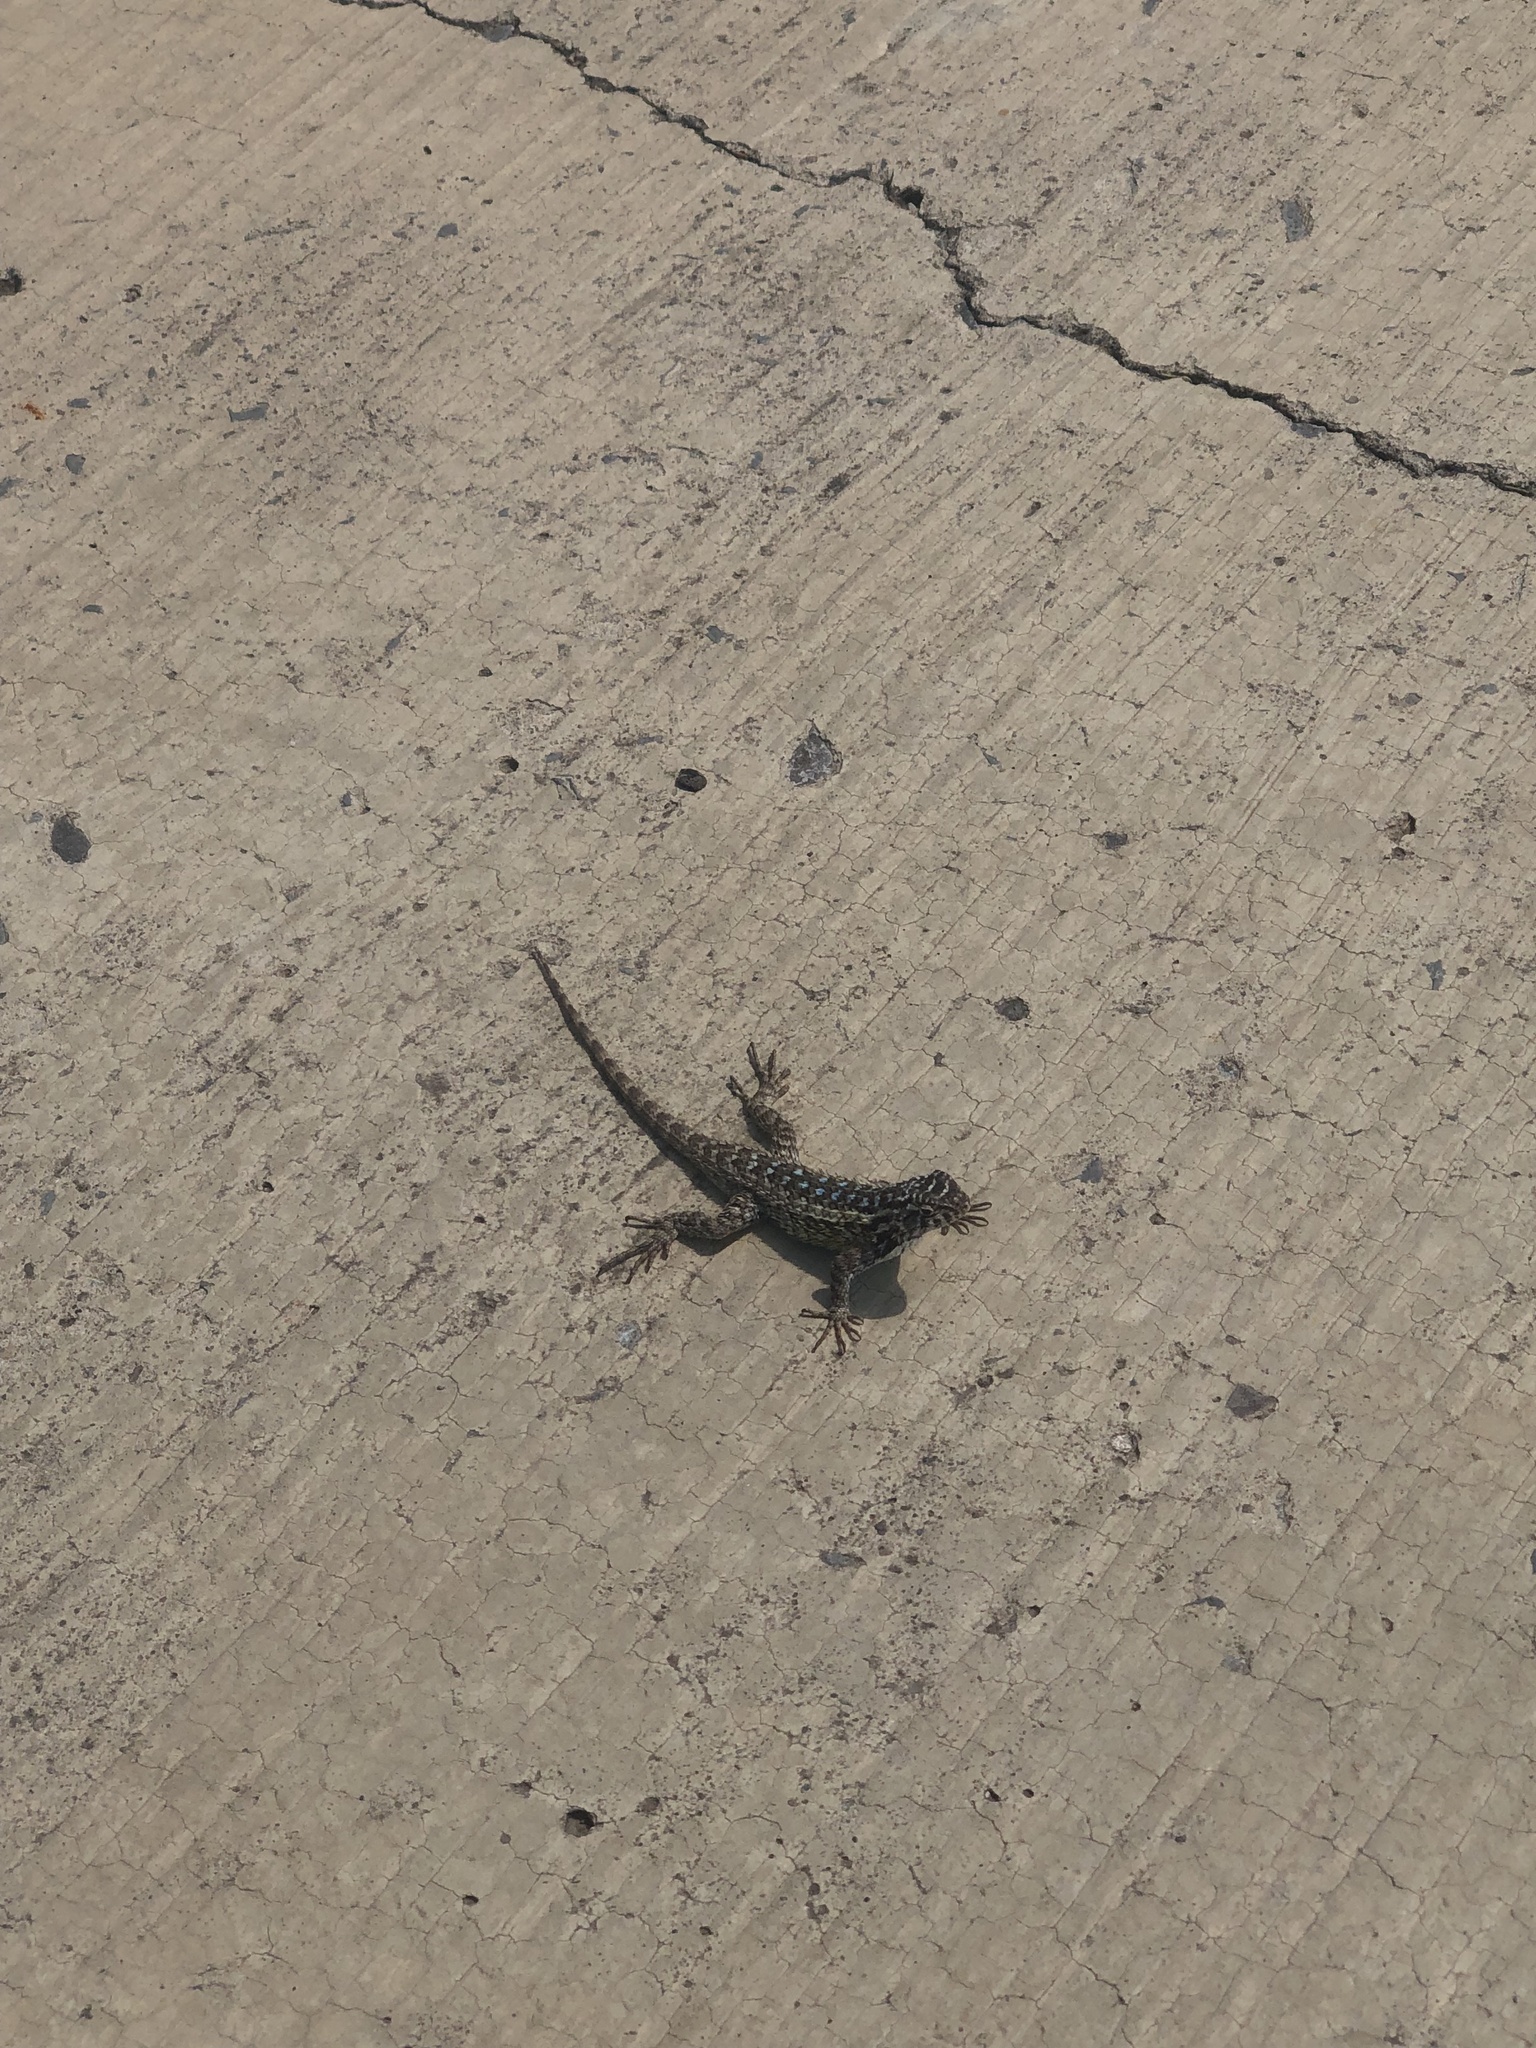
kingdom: Animalia
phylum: Chordata
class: Squamata
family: Phrynosomatidae
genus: Sceloporus
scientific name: Sceloporus spinosus
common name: Blue-spotted spiny lizard [caeruleopunctatus]
